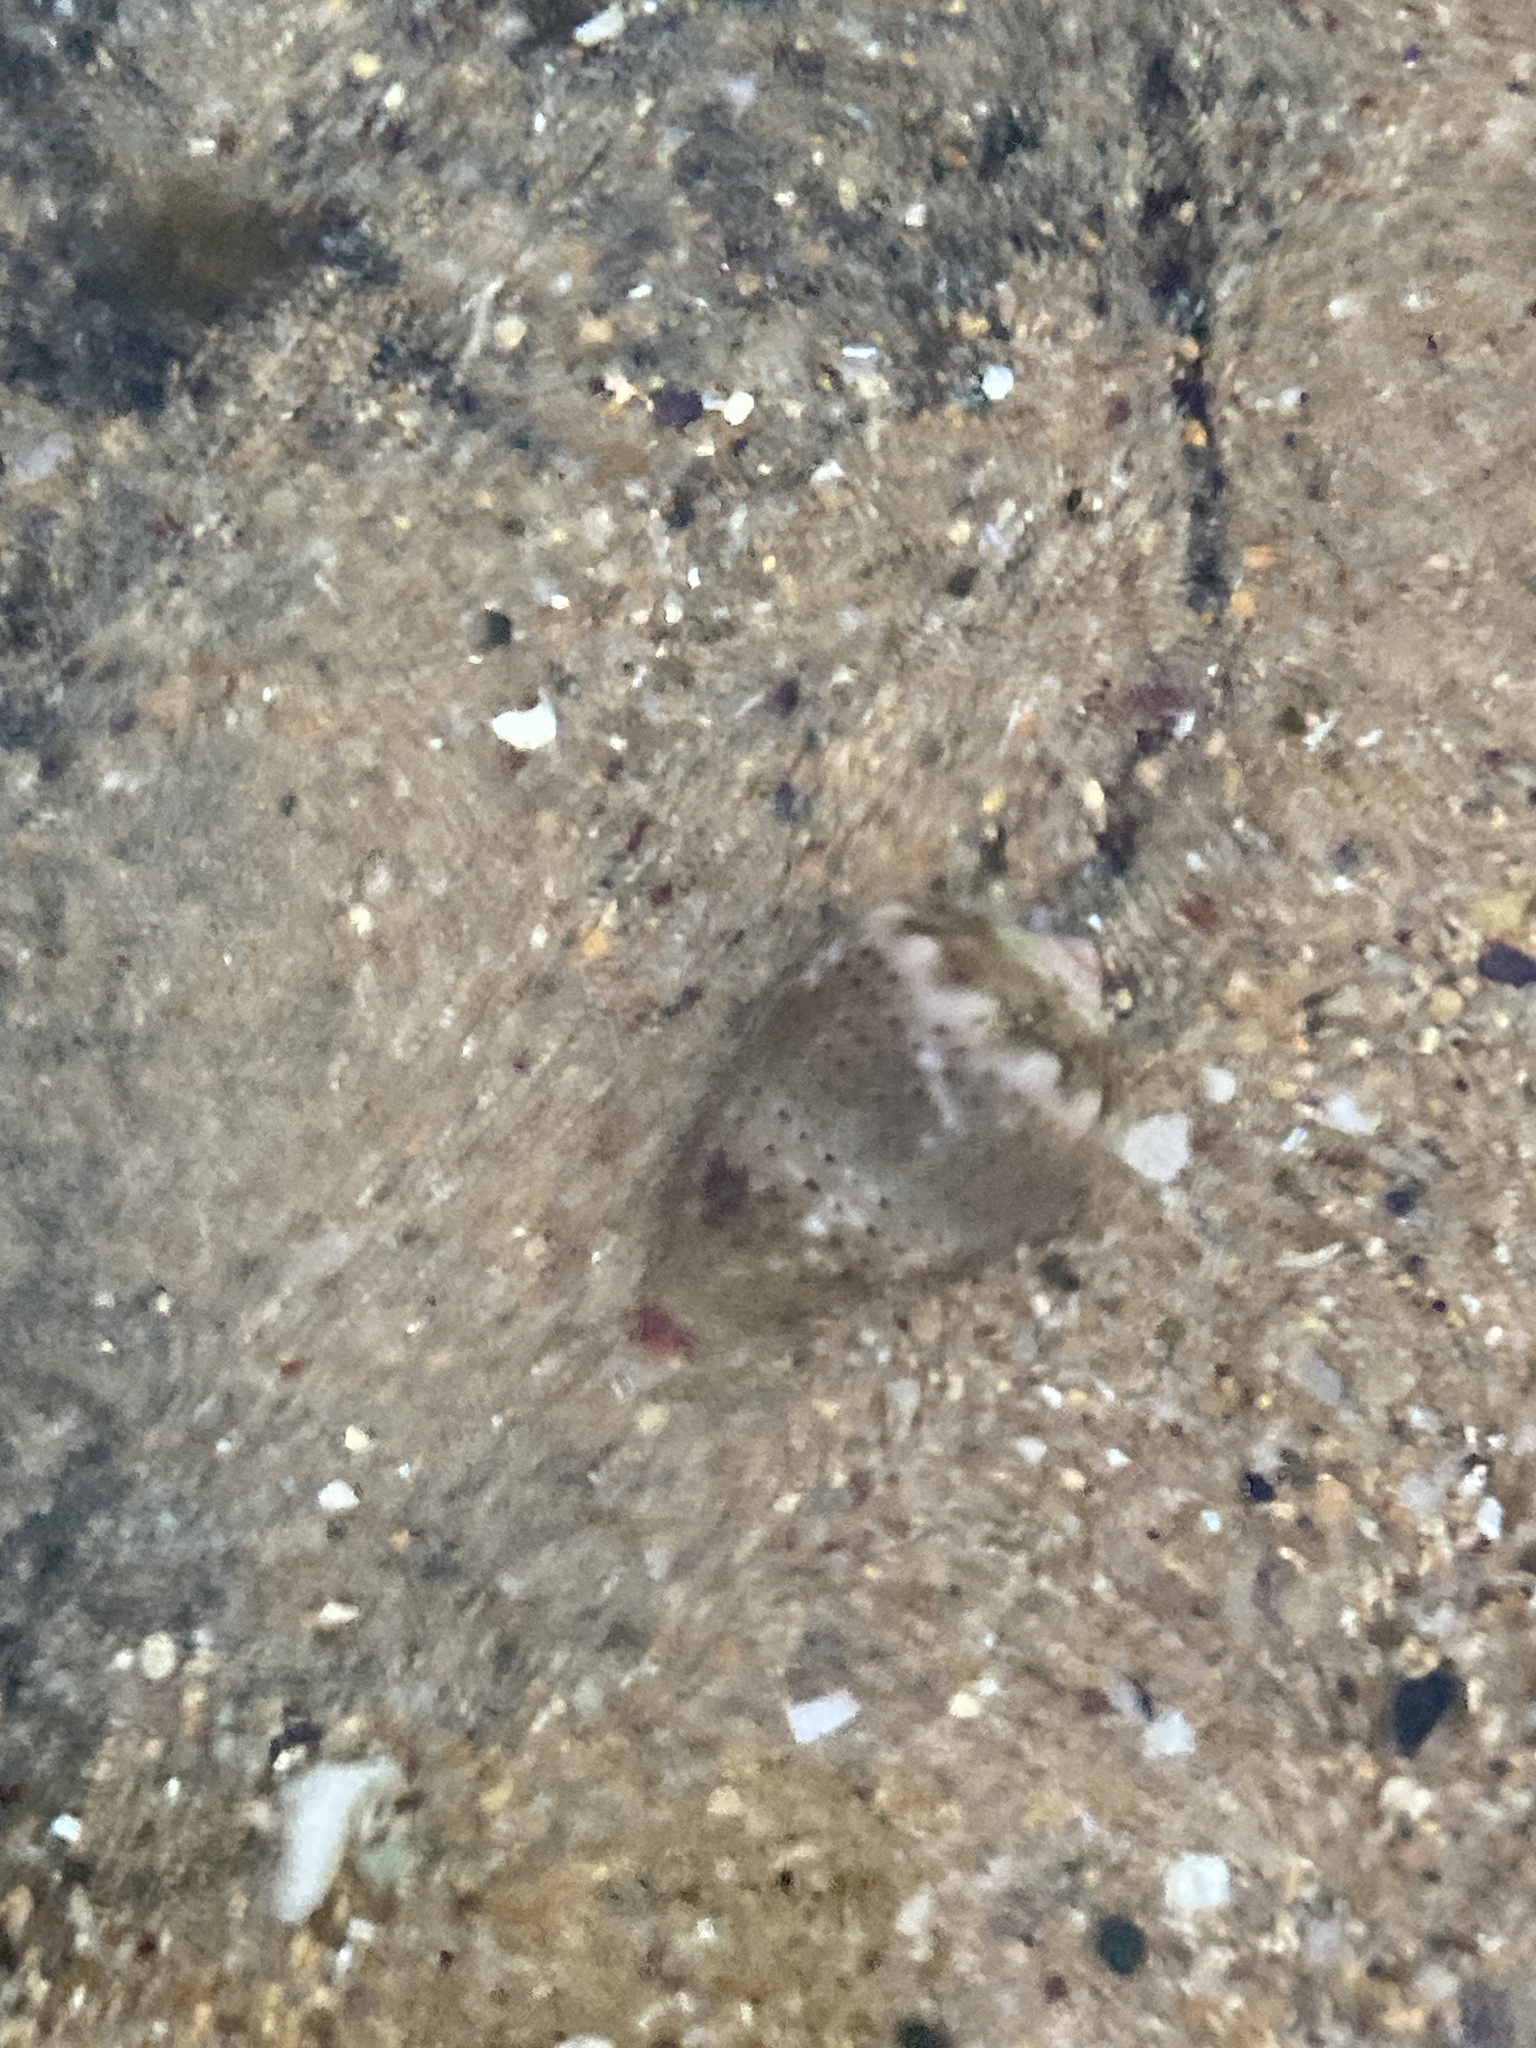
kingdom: Animalia
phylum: Mollusca
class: Gastropoda
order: Neogastropoda
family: Conidae
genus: Conus
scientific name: Conus coronatus
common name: Coronated cone
